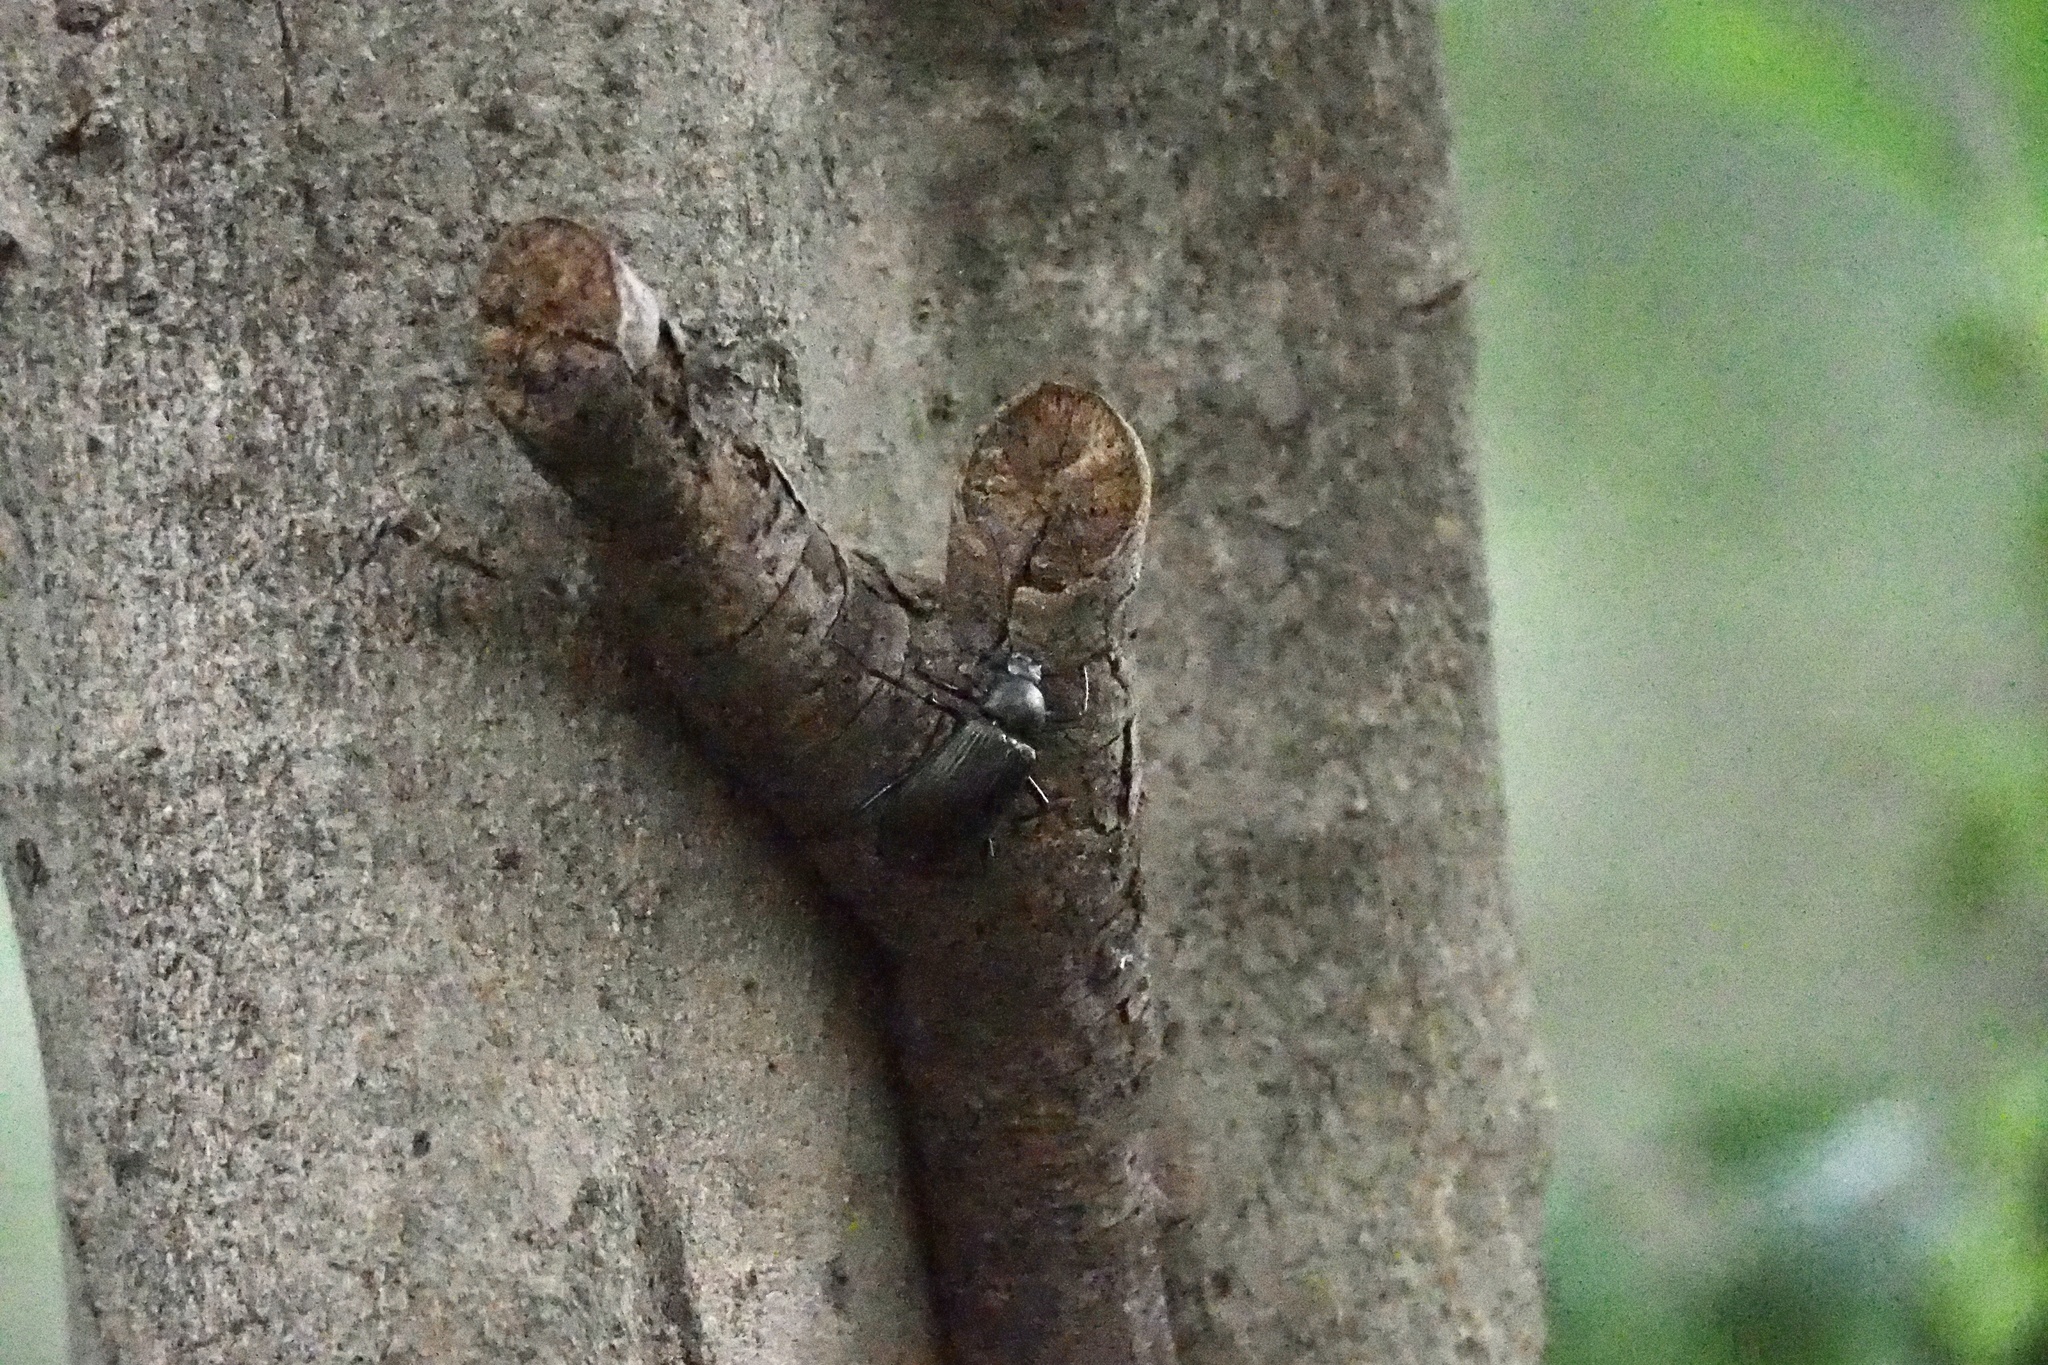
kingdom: Animalia
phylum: Arthropoda
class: Insecta
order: Coleoptera
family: Tenebrionidae
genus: Plesiophthalmus
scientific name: Plesiophthalmus
